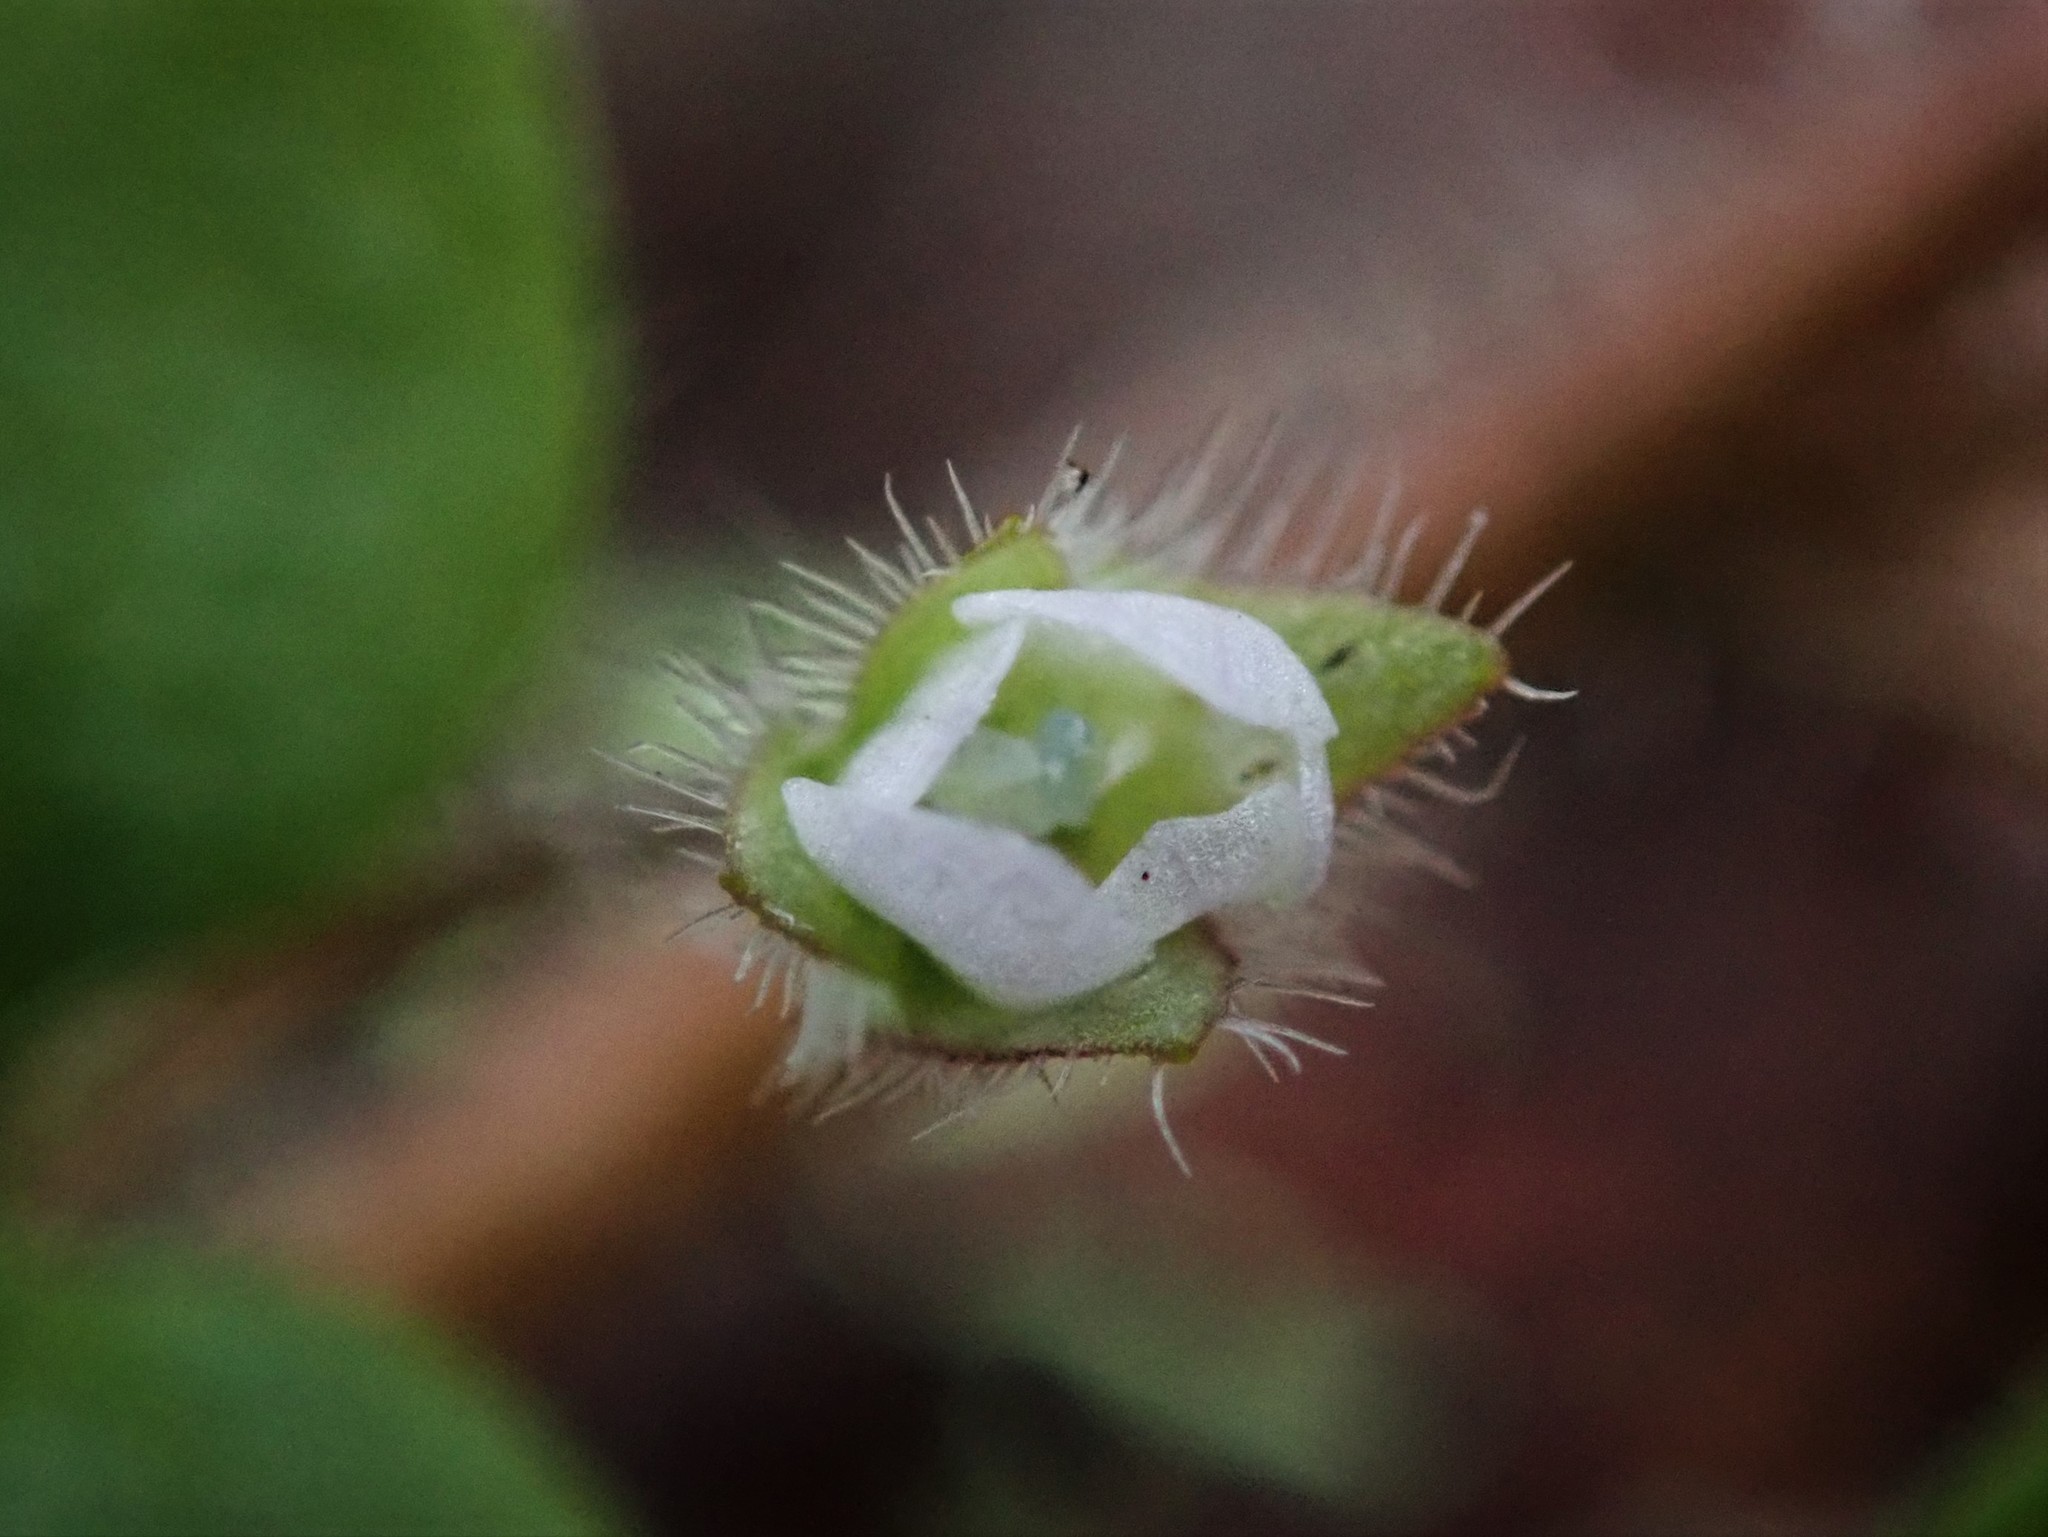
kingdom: Plantae
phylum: Tracheophyta
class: Magnoliopsida
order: Lamiales
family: Plantaginaceae
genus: Veronica
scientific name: Veronica sublobata
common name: False ivy-leaved speedwell
